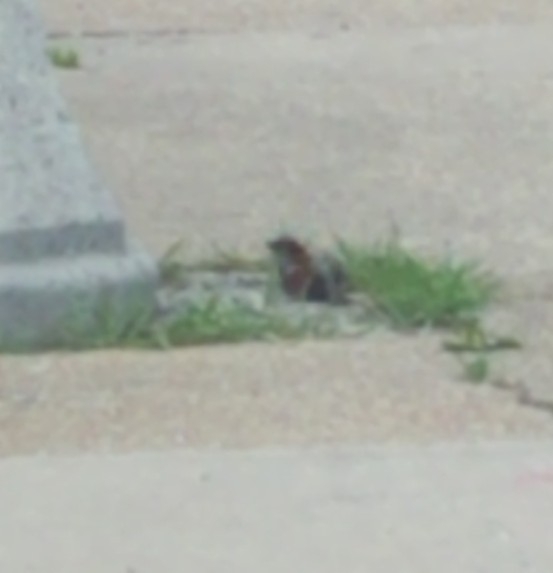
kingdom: Animalia
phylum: Chordata
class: Aves
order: Passeriformes
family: Passeridae
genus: Passer
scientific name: Passer domesticus
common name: House sparrow
